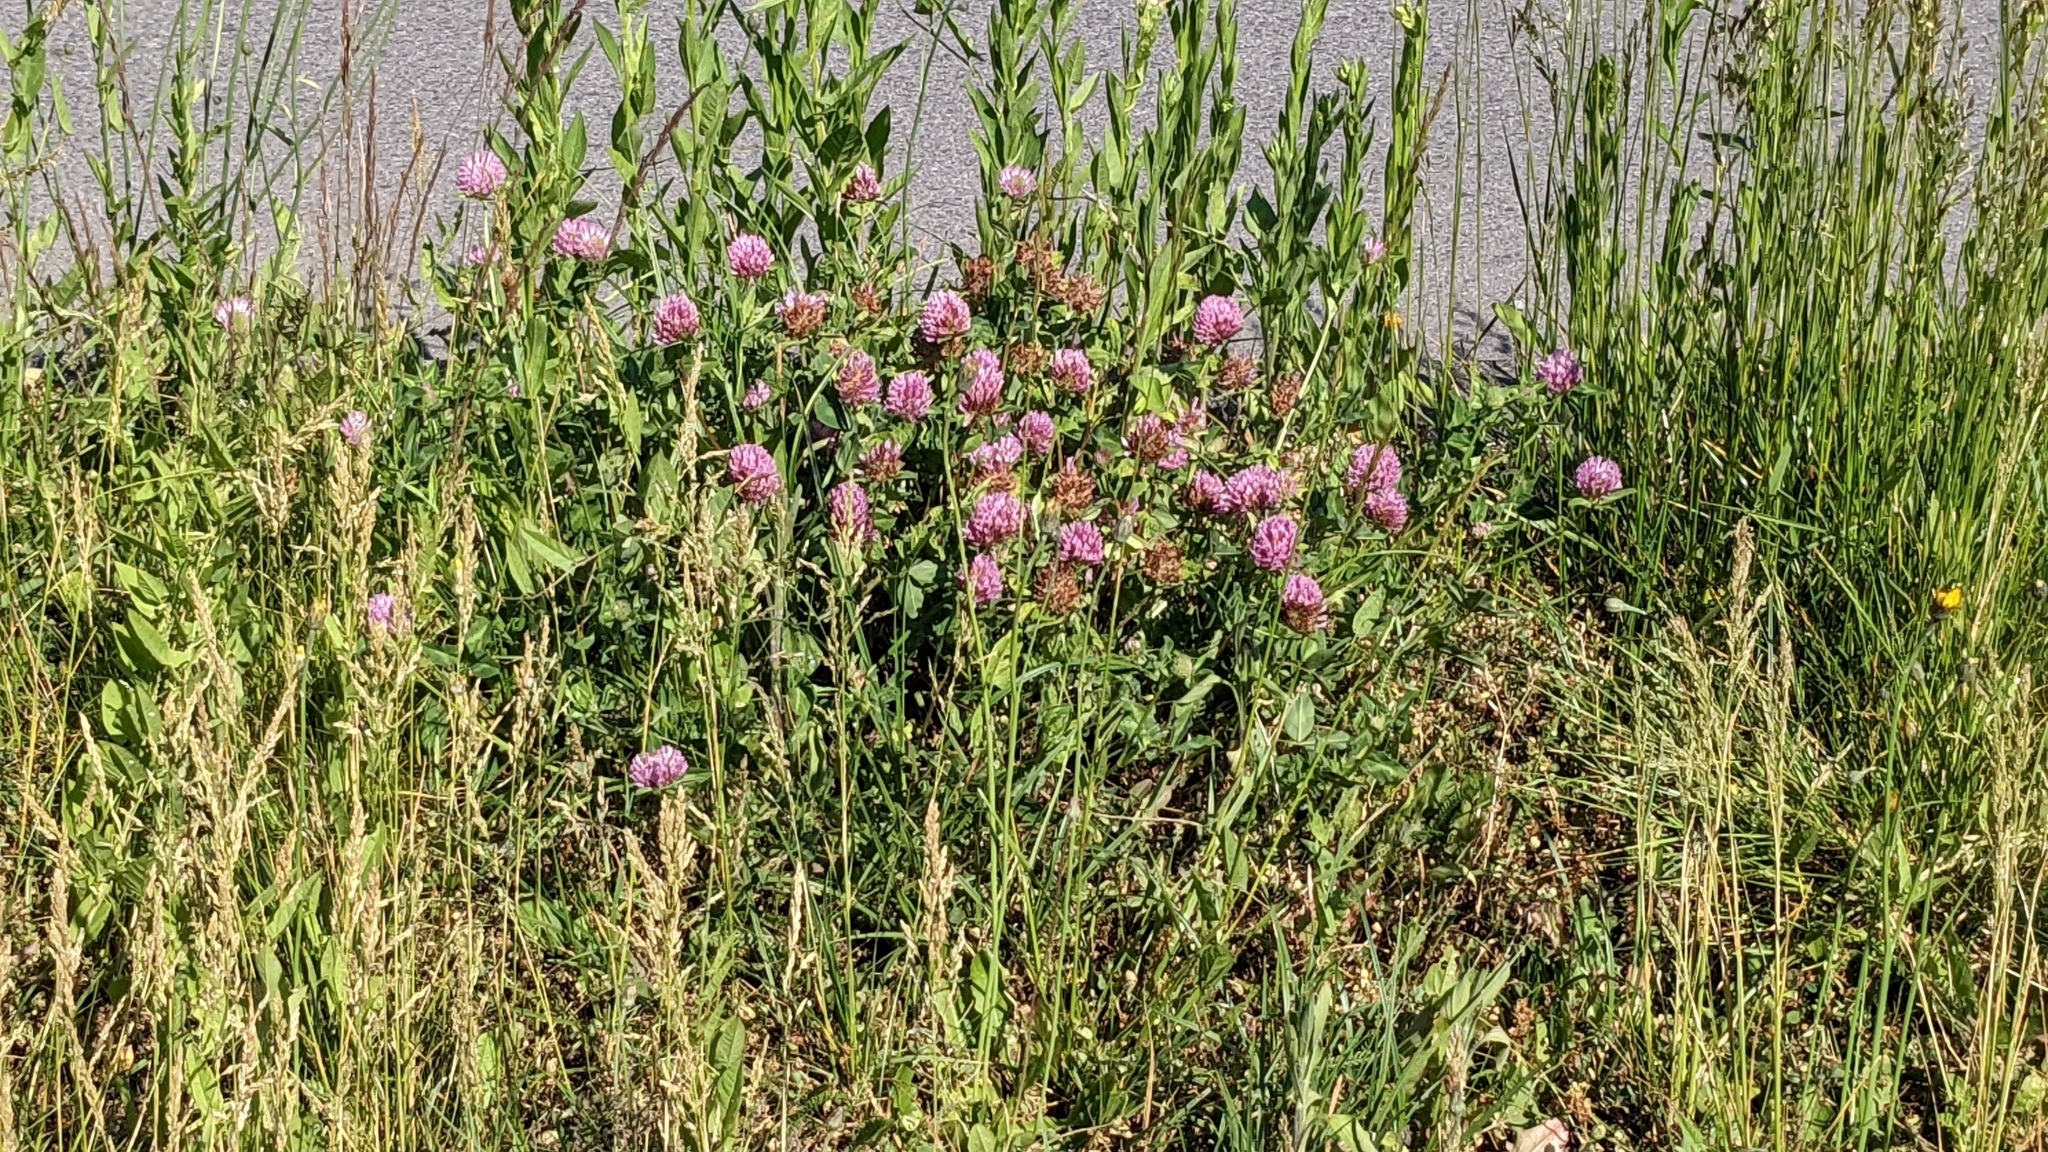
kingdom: Plantae
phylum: Tracheophyta
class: Magnoliopsida
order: Fabales
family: Fabaceae
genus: Trifolium
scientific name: Trifolium pratense
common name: Red clover
